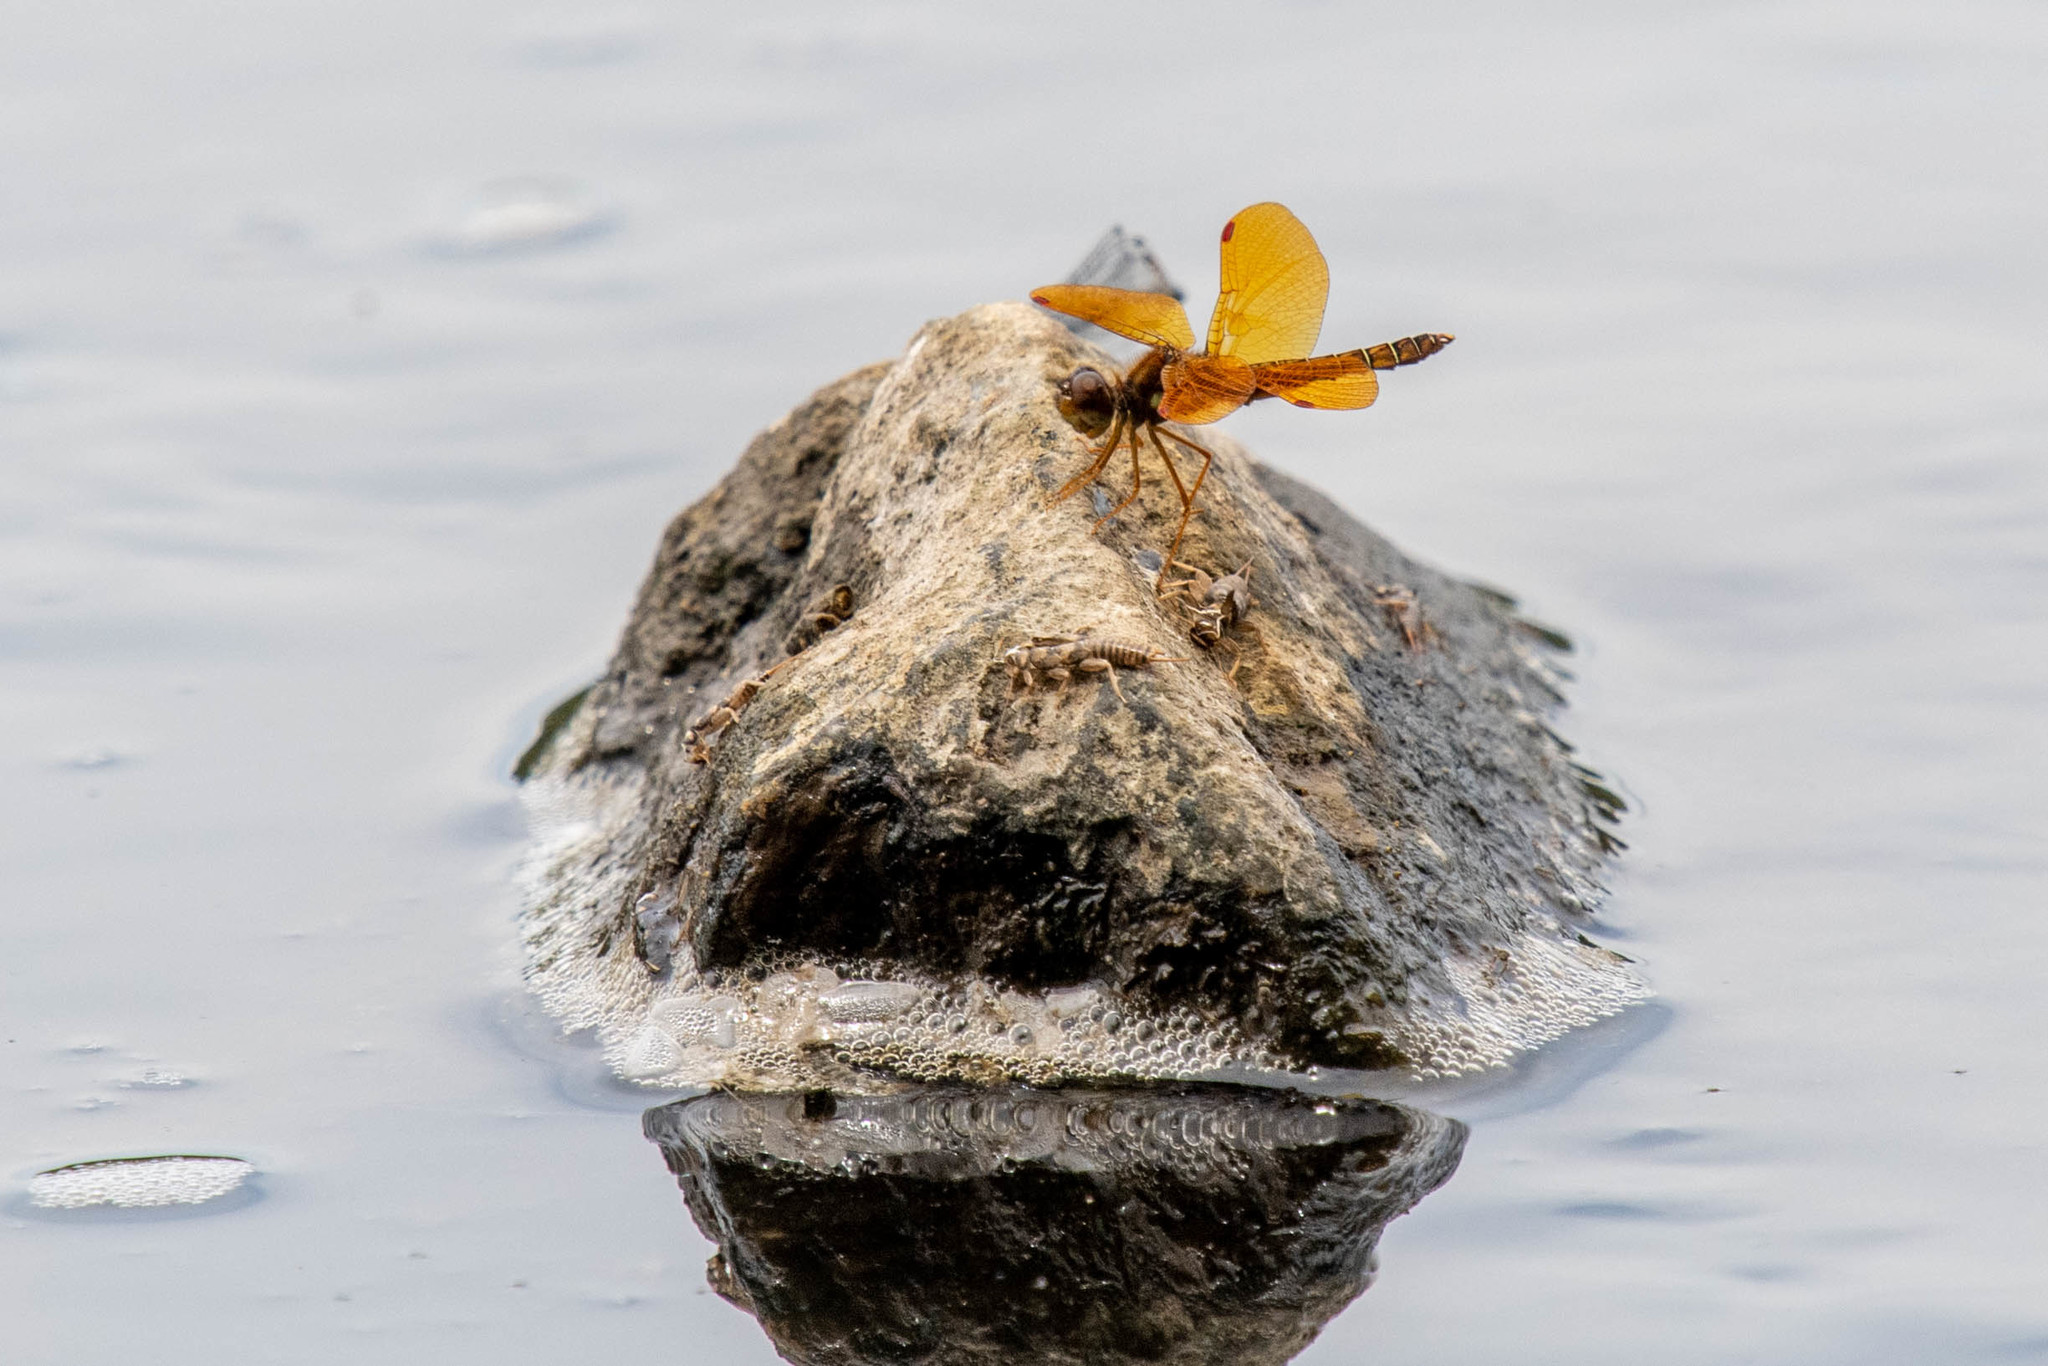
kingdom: Animalia
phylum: Arthropoda
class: Insecta
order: Odonata
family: Libellulidae
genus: Perithemis
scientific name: Perithemis tenera
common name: Eastern amberwing
